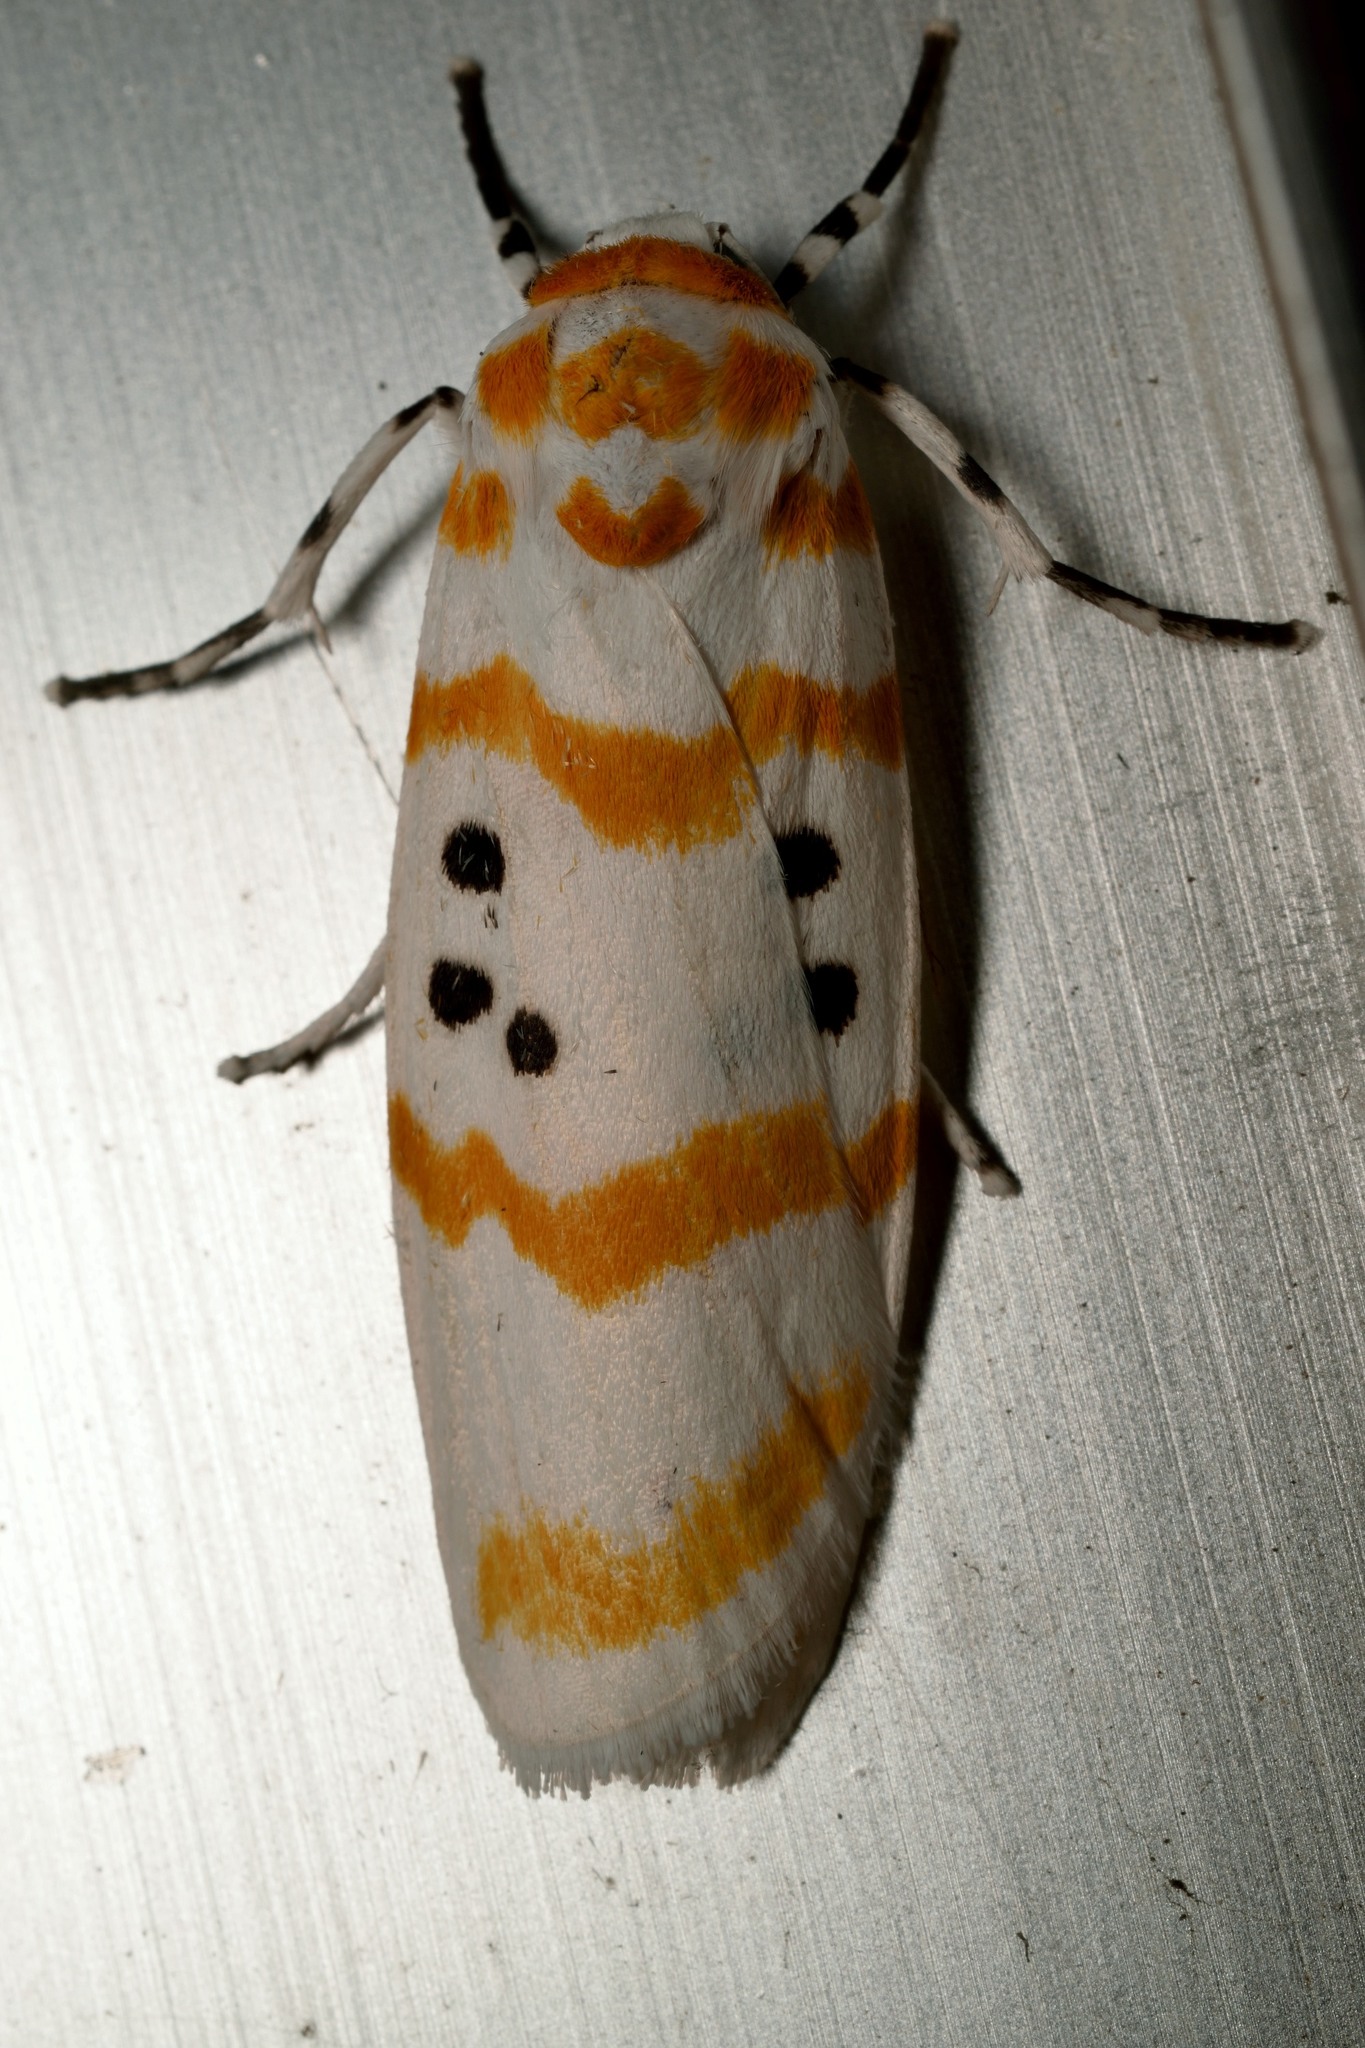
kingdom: Animalia
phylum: Arthropoda
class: Insecta
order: Lepidoptera
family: Erebidae
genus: Cyana
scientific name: Cyana arama
